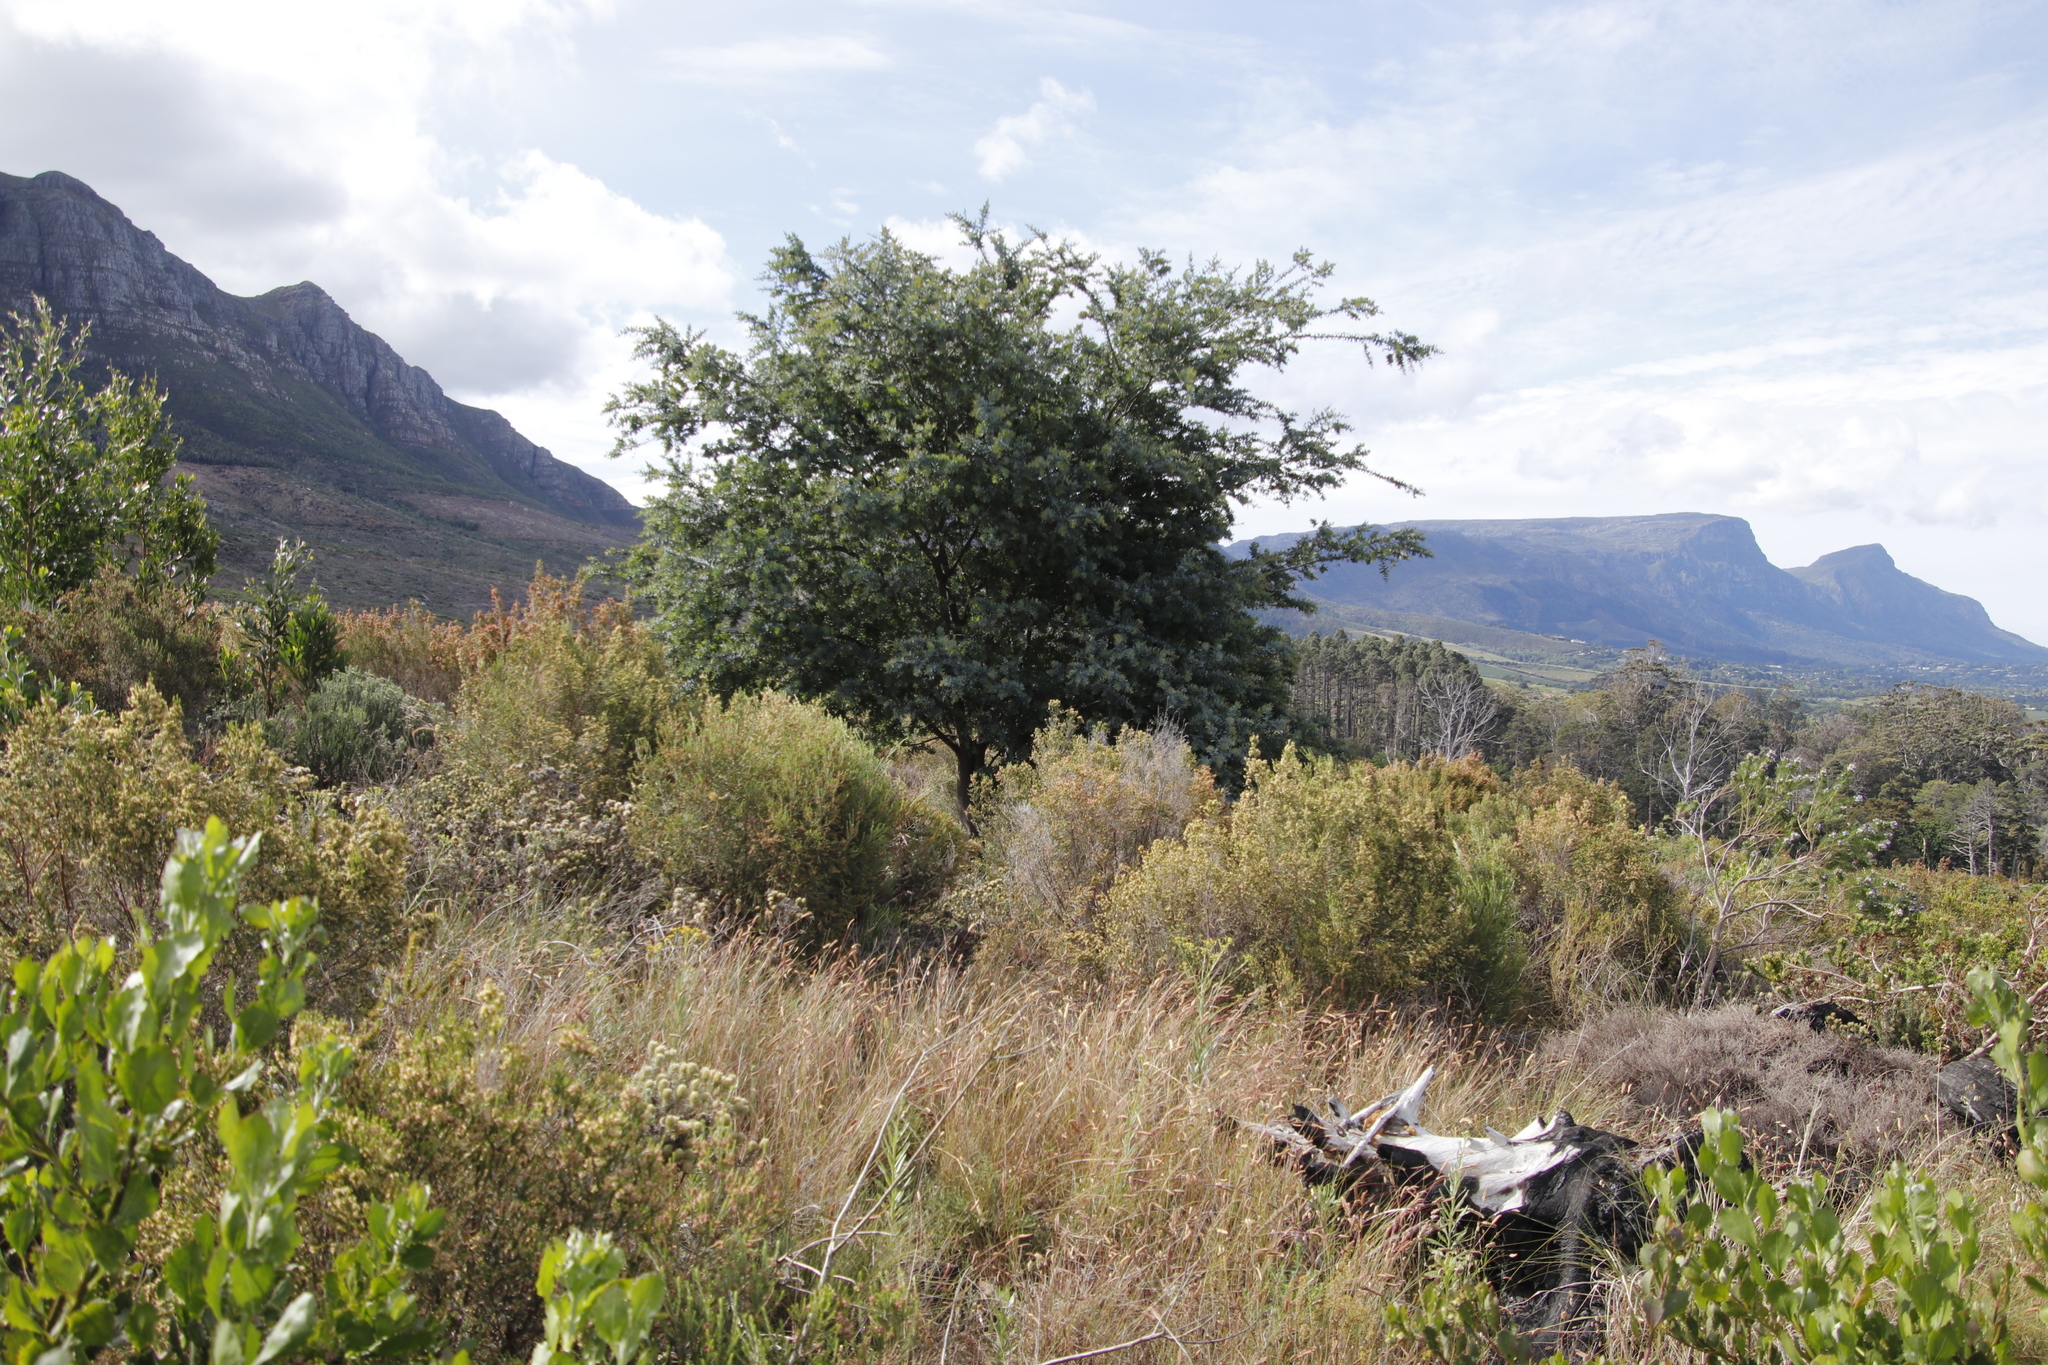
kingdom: Plantae
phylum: Tracheophyta
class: Magnoliopsida
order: Fabales
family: Fabaceae
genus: Acacia
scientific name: Acacia baileyana
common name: Cootamundra wattle
